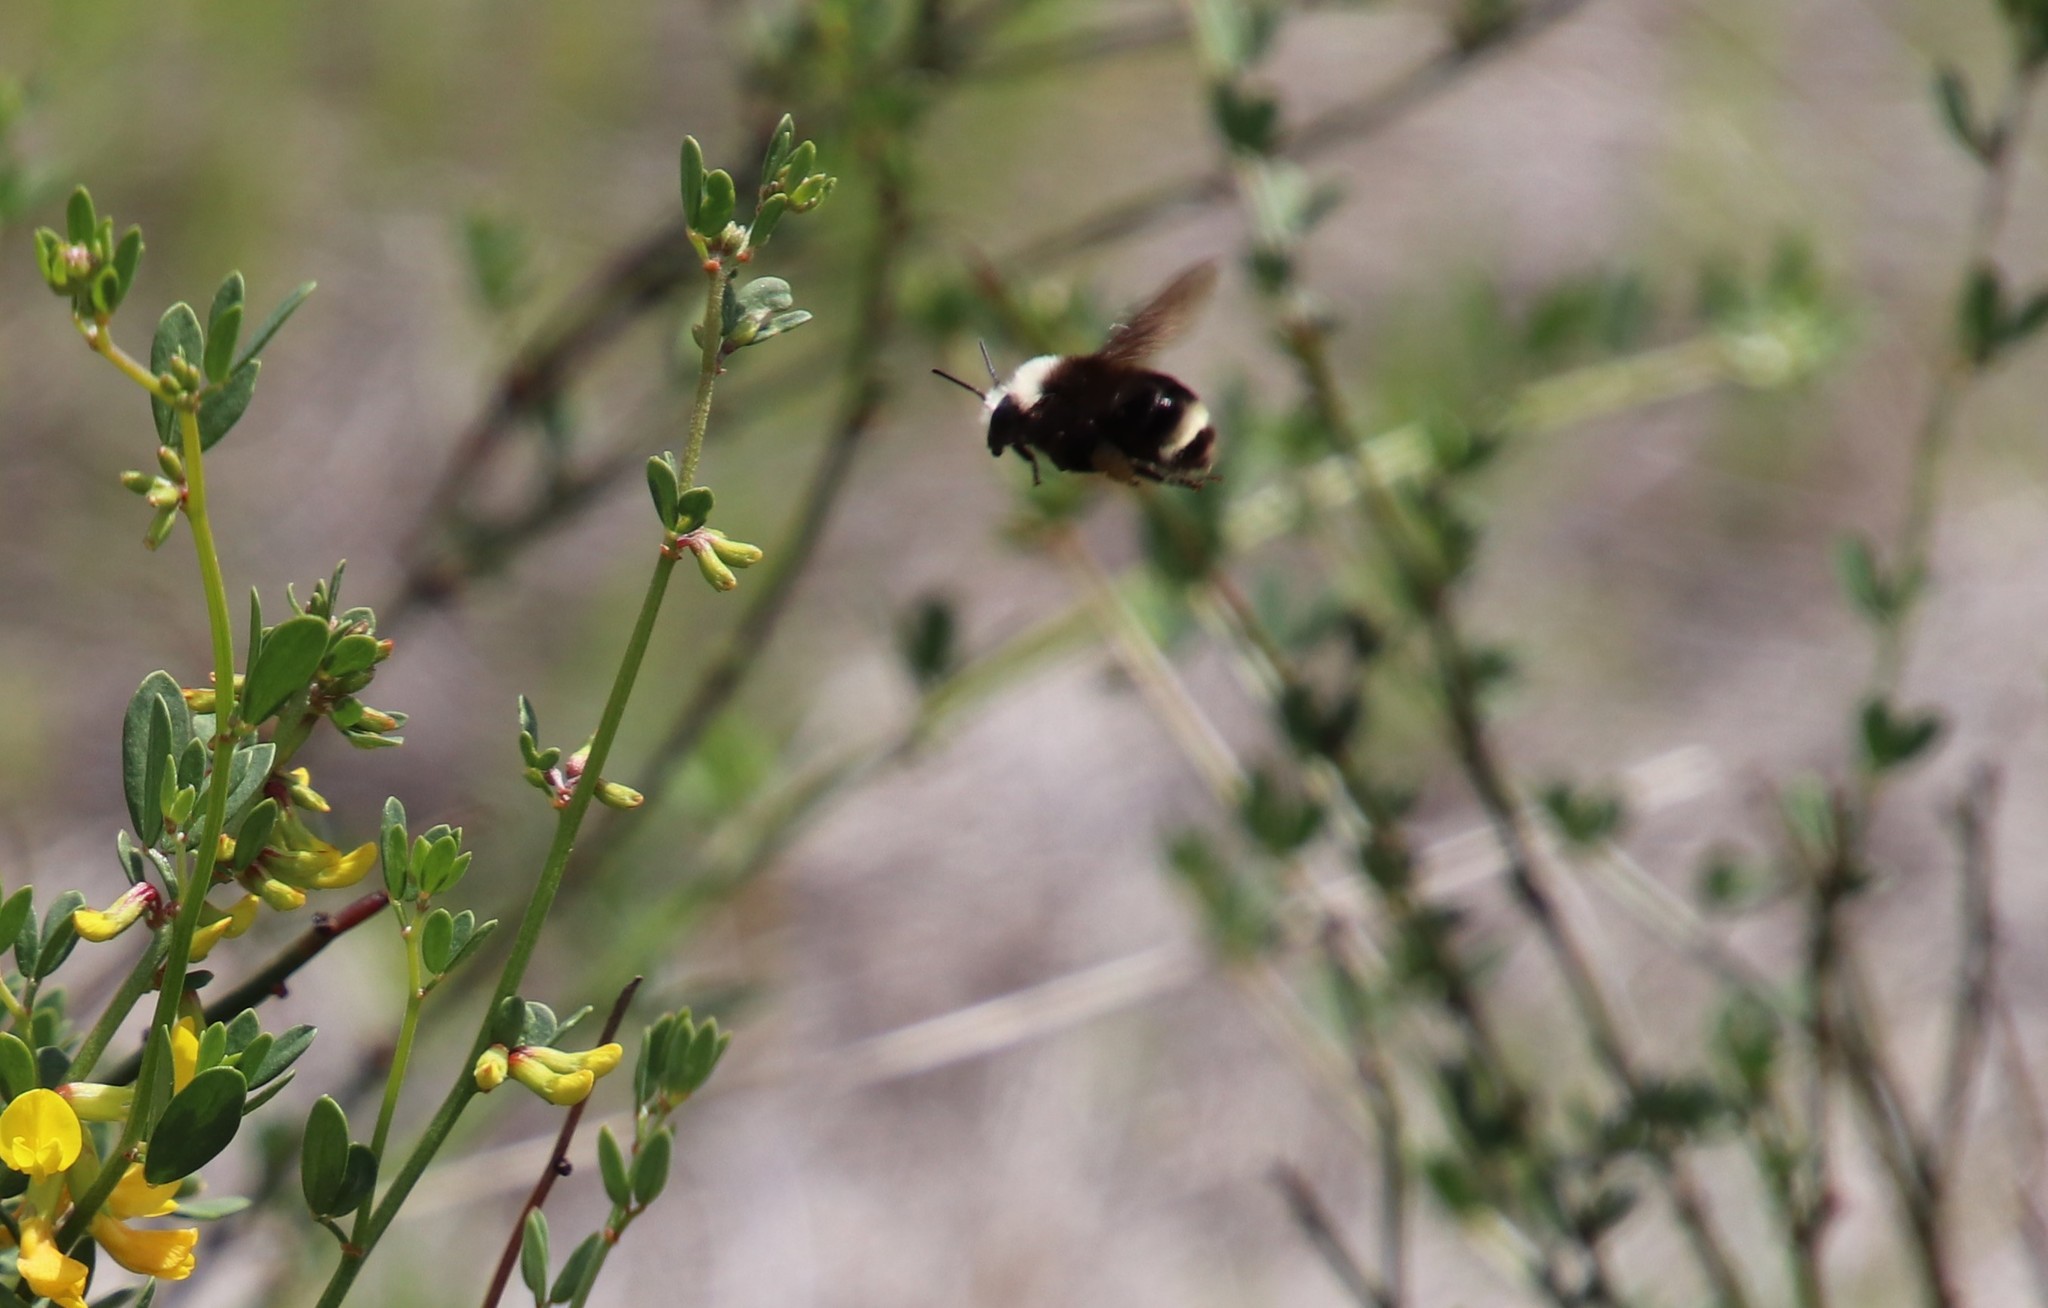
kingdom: Animalia
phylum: Arthropoda
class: Insecta
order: Hymenoptera
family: Apidae
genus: Bombus
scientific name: Bombus vosnesenskii
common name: Vosnesensky bumble bee
